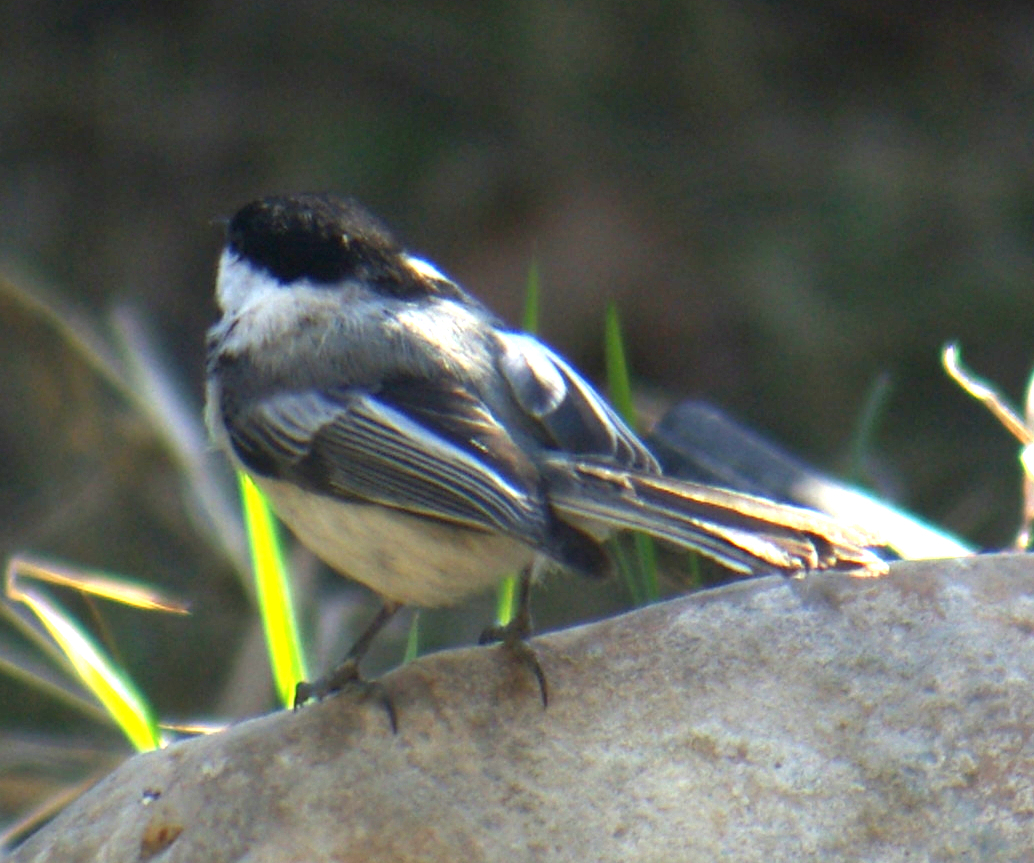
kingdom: Animalia
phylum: Chordata
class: Aves
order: Passeriformes
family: Paridae
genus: Poecile
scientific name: Poecile atricapillus
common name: Black-capped chickadee
